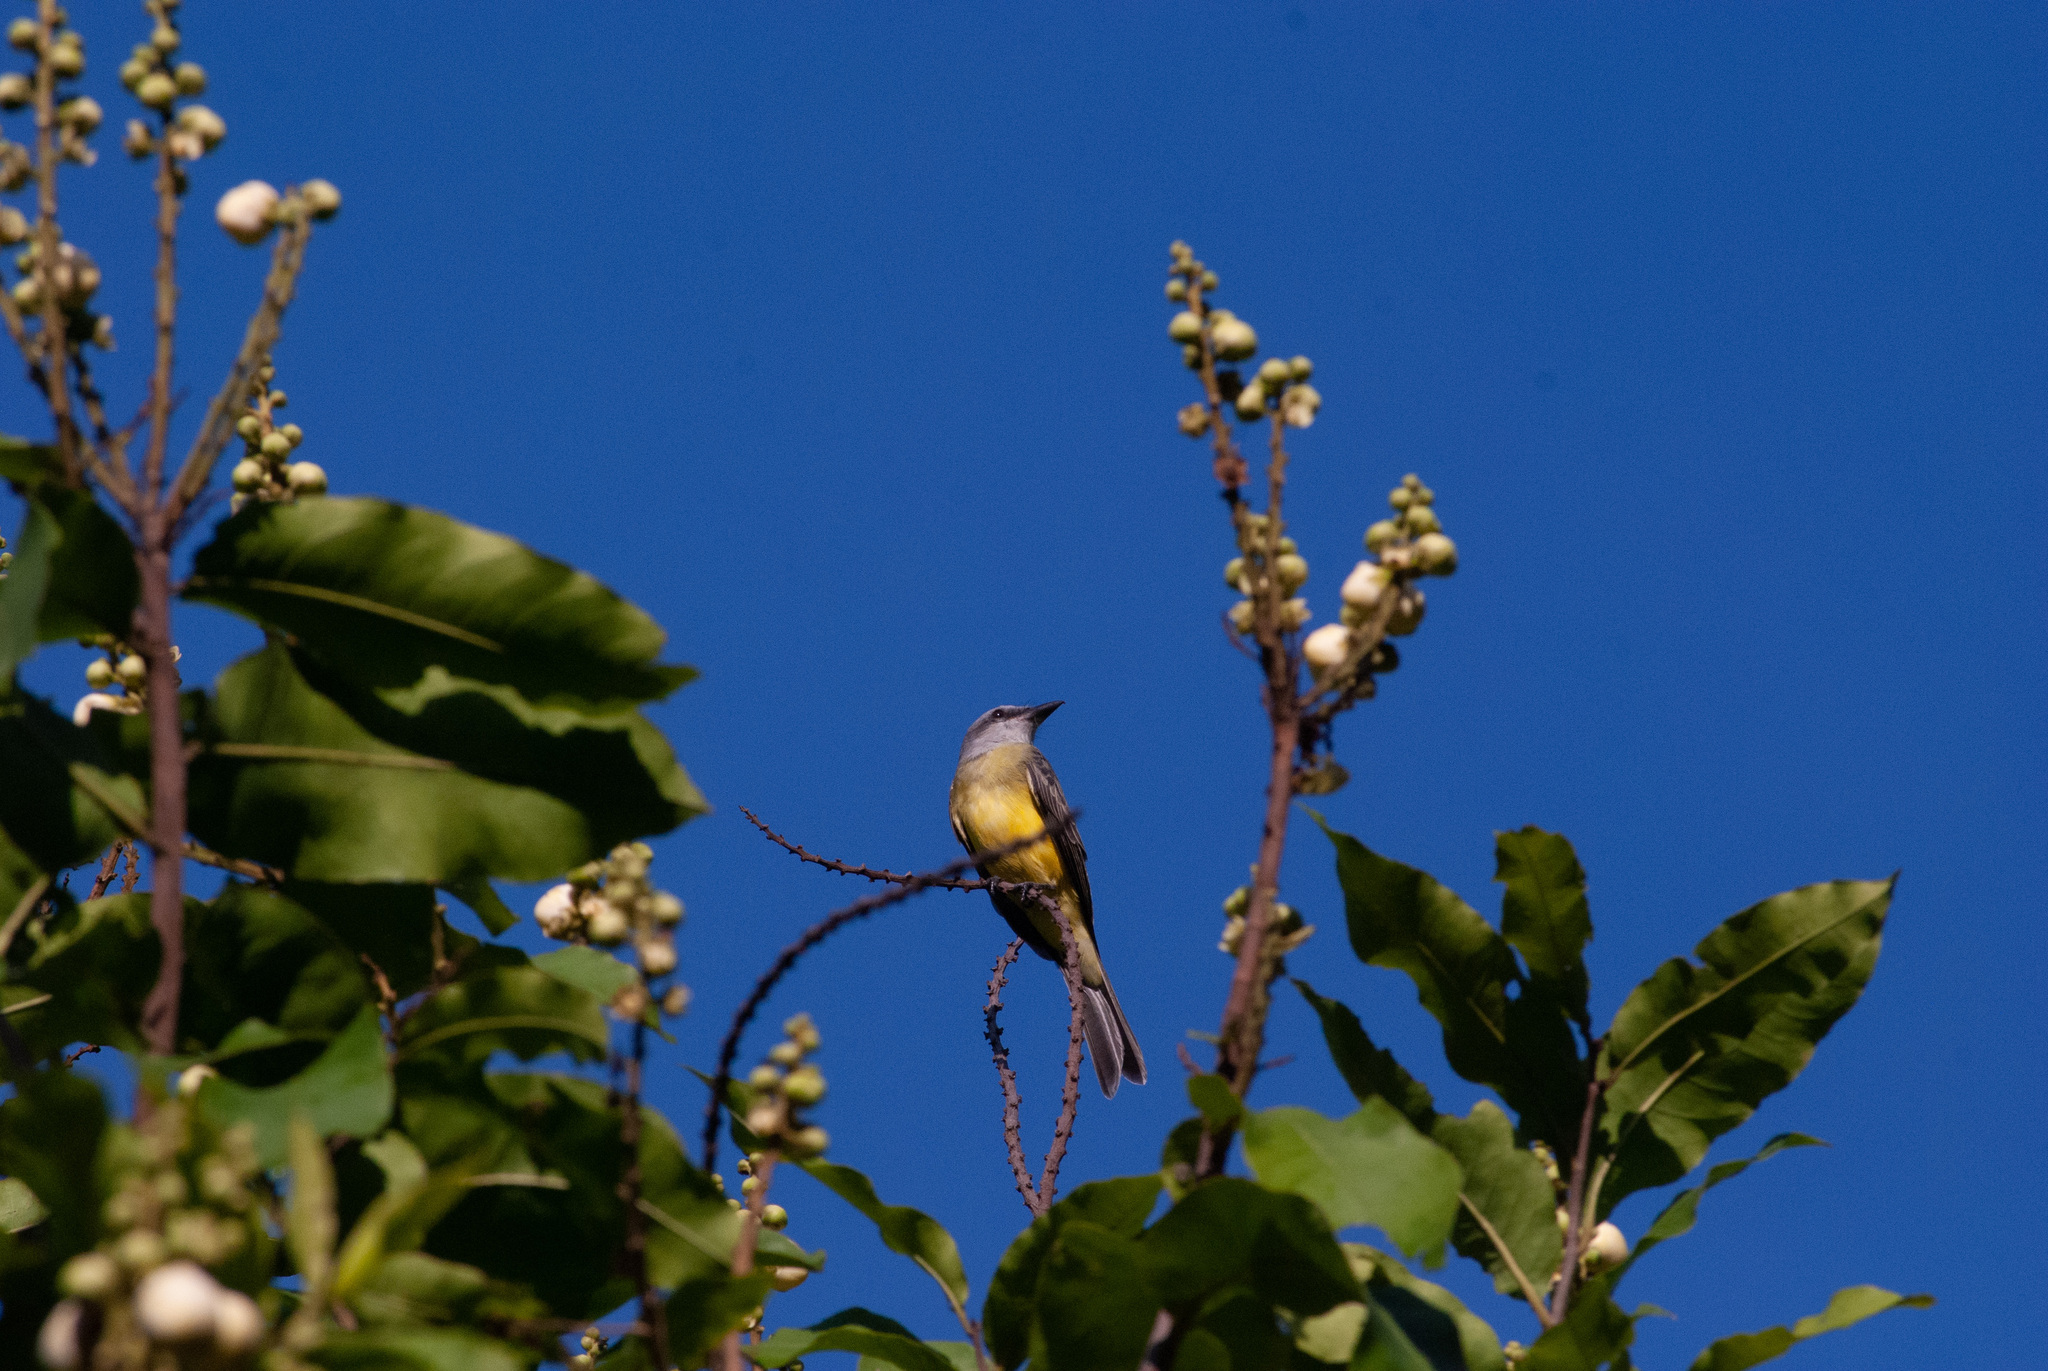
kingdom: Animalia
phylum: Chordata
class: Aves
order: Passeriformes
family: Tyrannidae
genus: Tyrannus
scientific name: Tyrannus melancholicus
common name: Tropical kingbird
